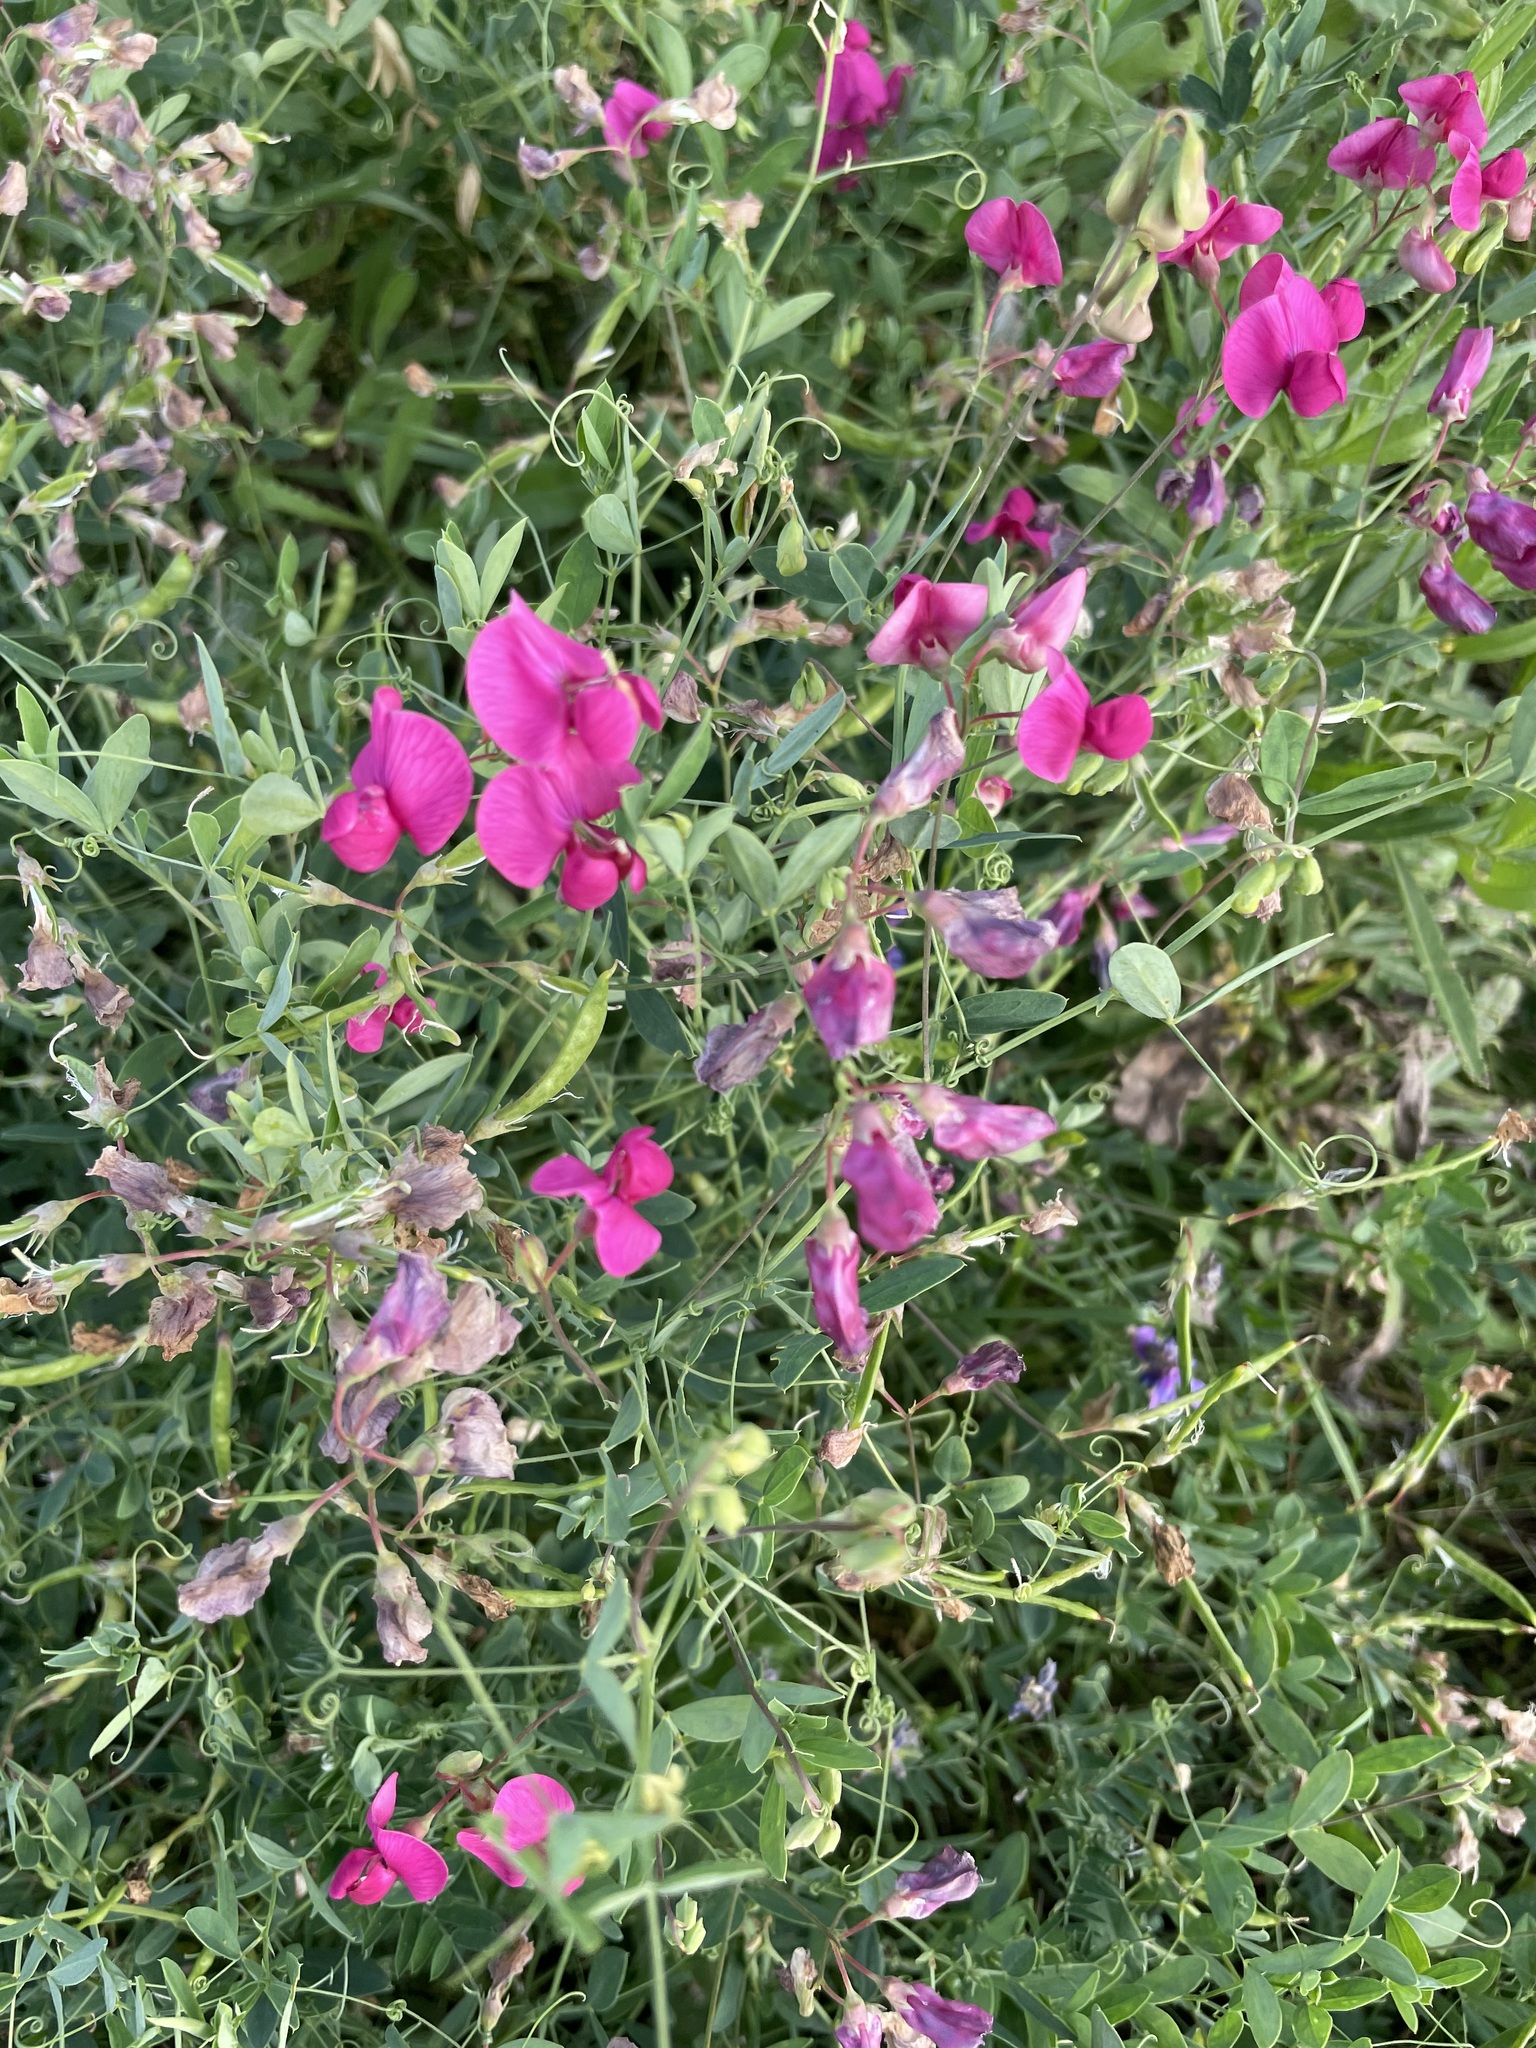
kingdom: Plantae
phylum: Tracheophyta
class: Magnoliopsida
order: Fabales
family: Fabaceae
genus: Lathyrus
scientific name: Lathyrus tuberosus
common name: Tuberous pea
